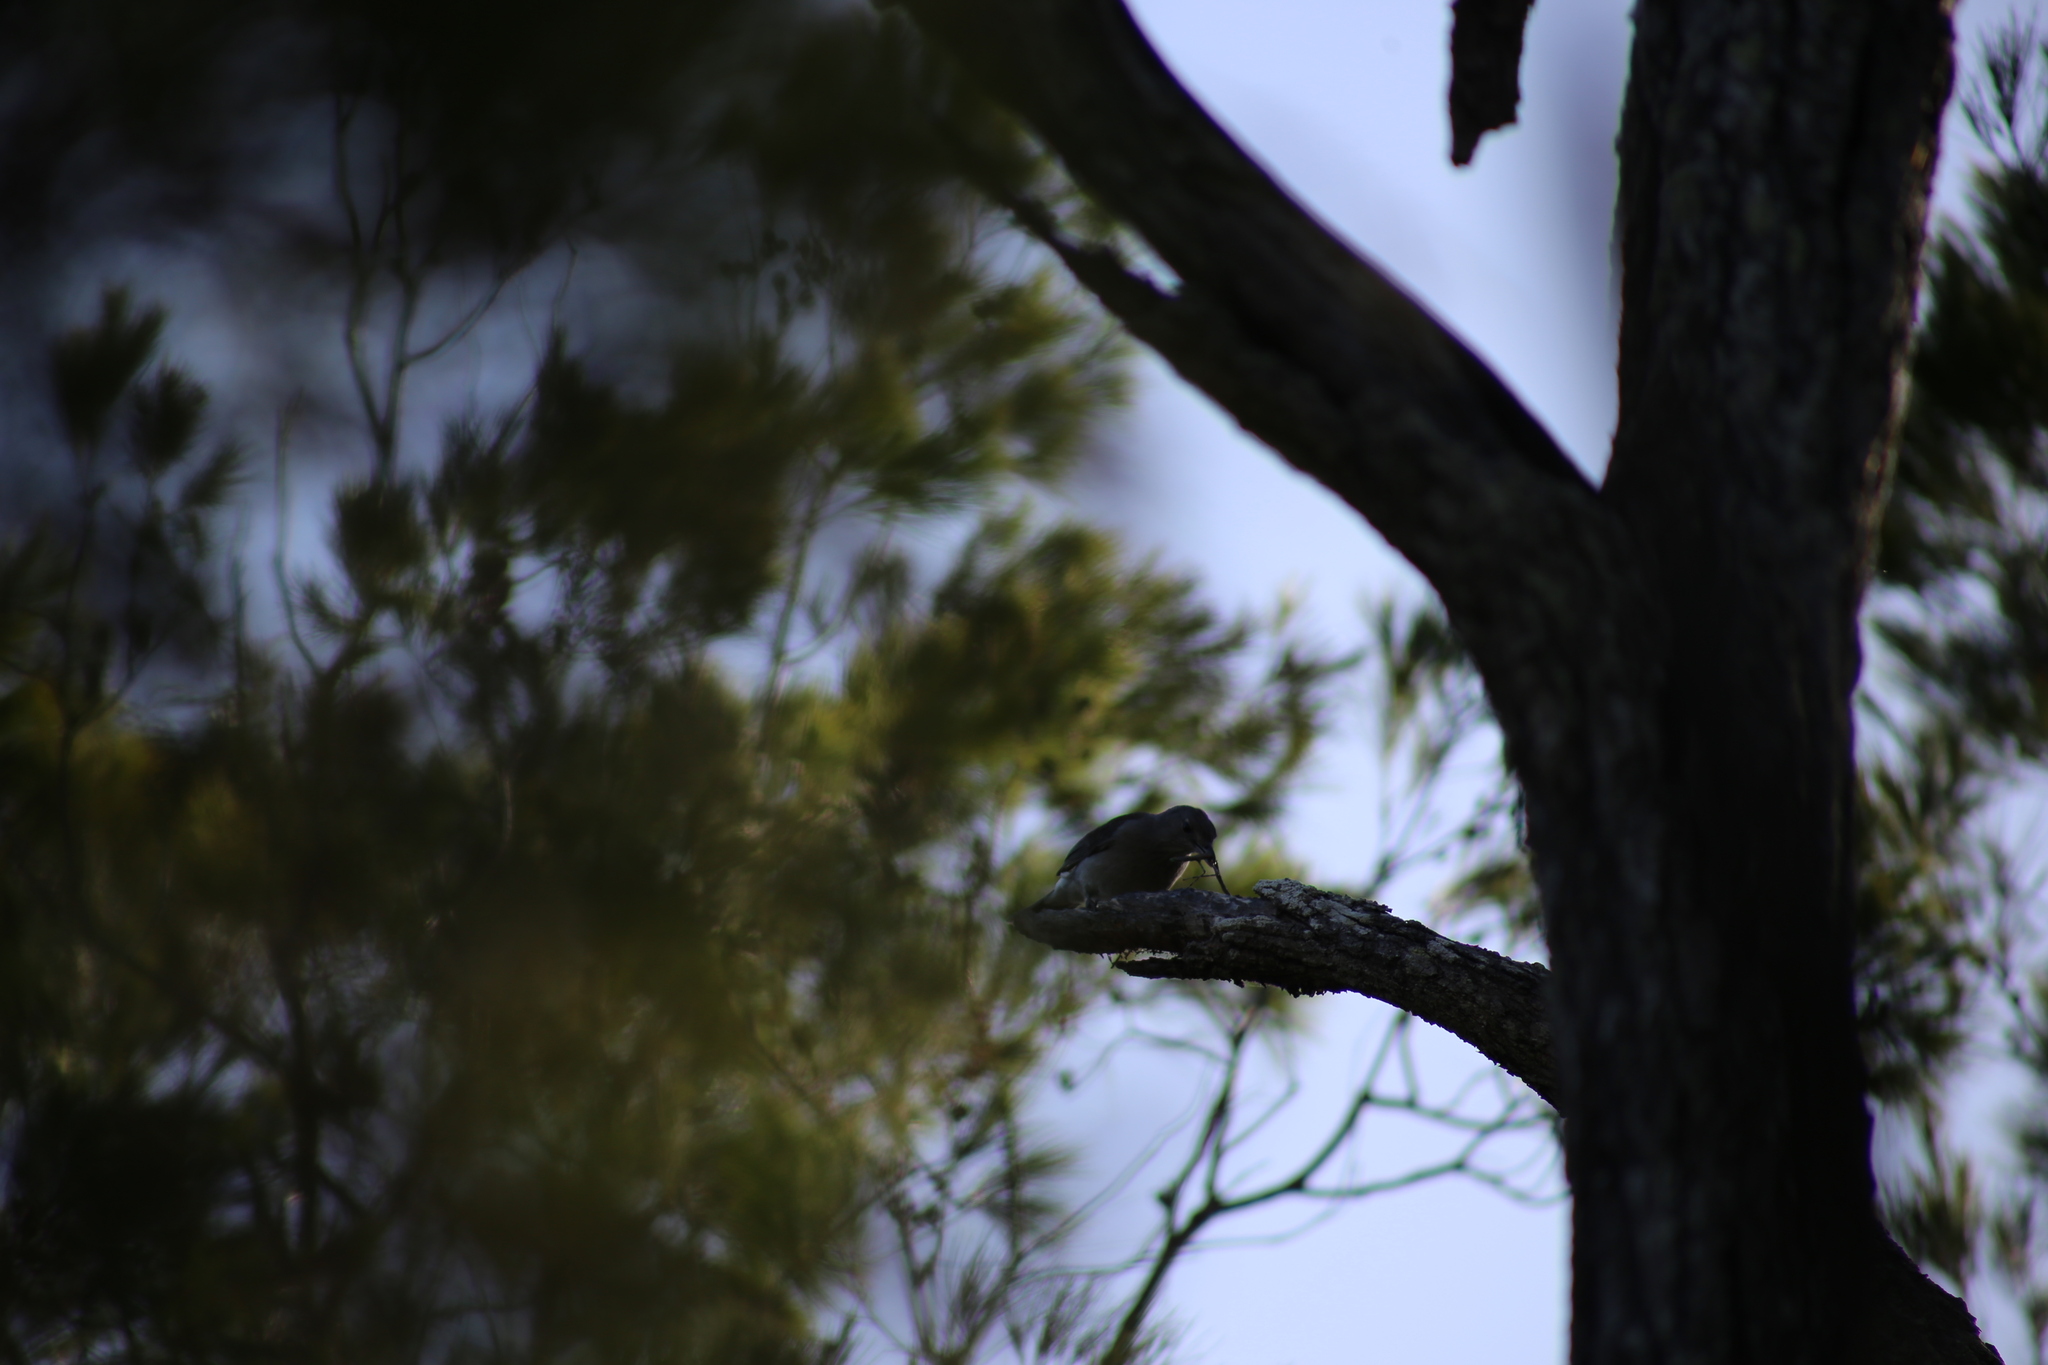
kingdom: Animalia
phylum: Chordata
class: Aves
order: Passeriformes
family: Pachycephalidae
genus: Colluricincla
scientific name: Colluricincla harmonica
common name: Grey shrikethrush
